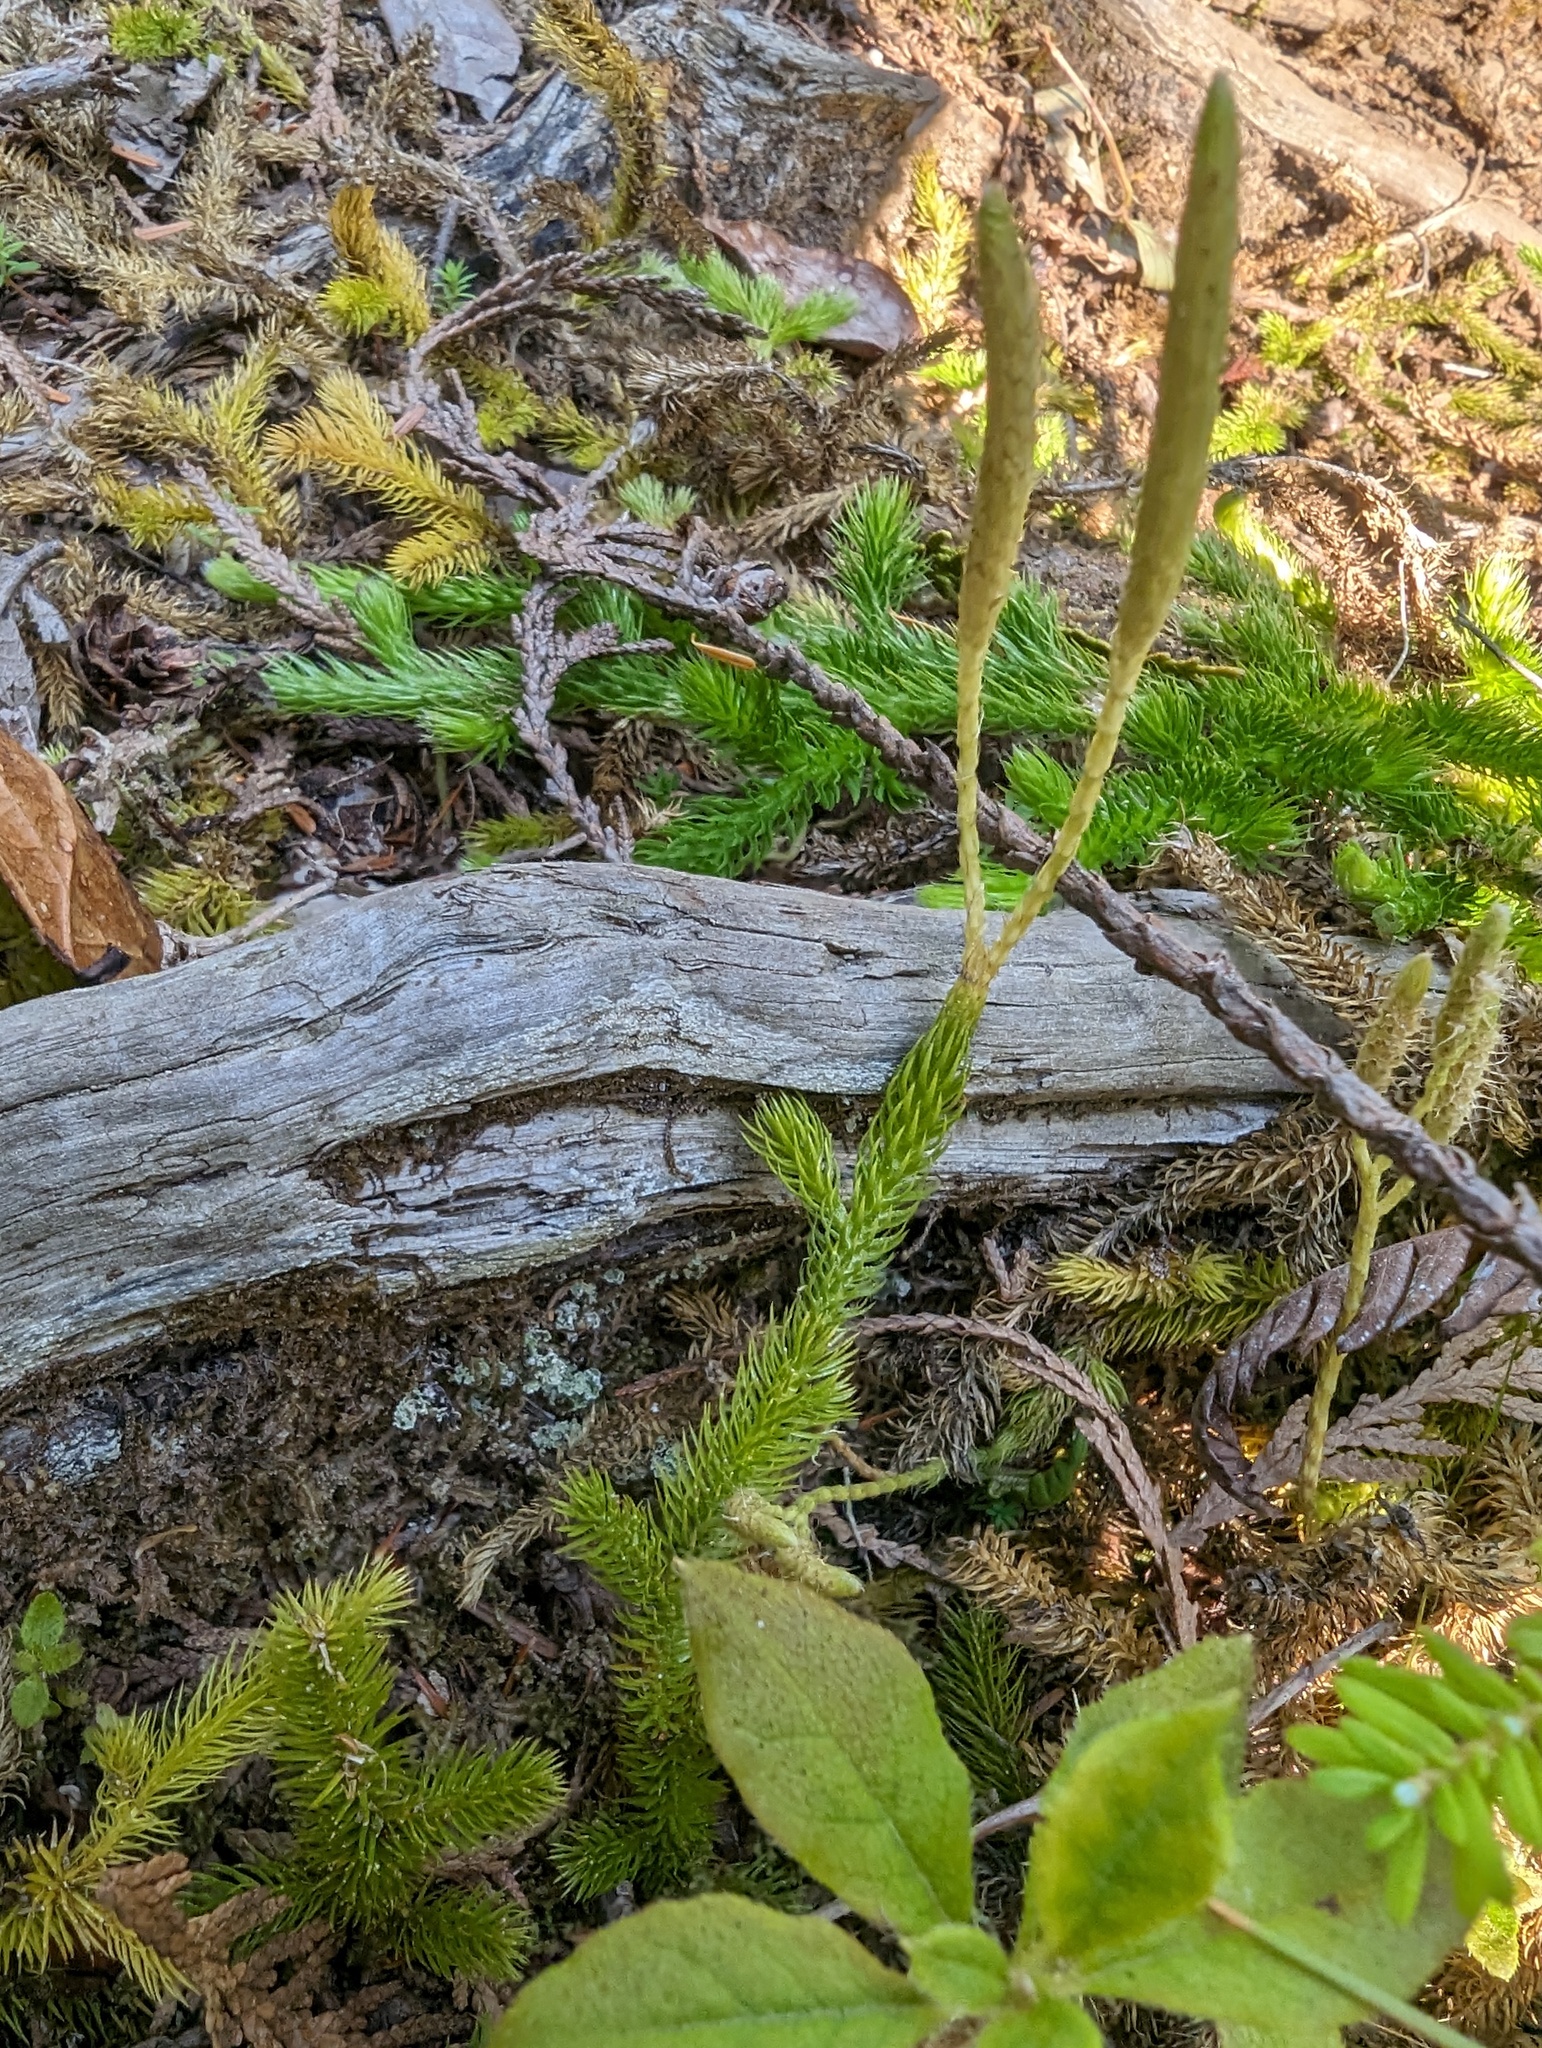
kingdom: Plantae
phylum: Tracheophyta
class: Lycopodiopsida
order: Lycopodiales
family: Lycopodiaceae
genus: Lycopodium
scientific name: Lycopodium clavatum
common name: Stag's-horn clubmoss
